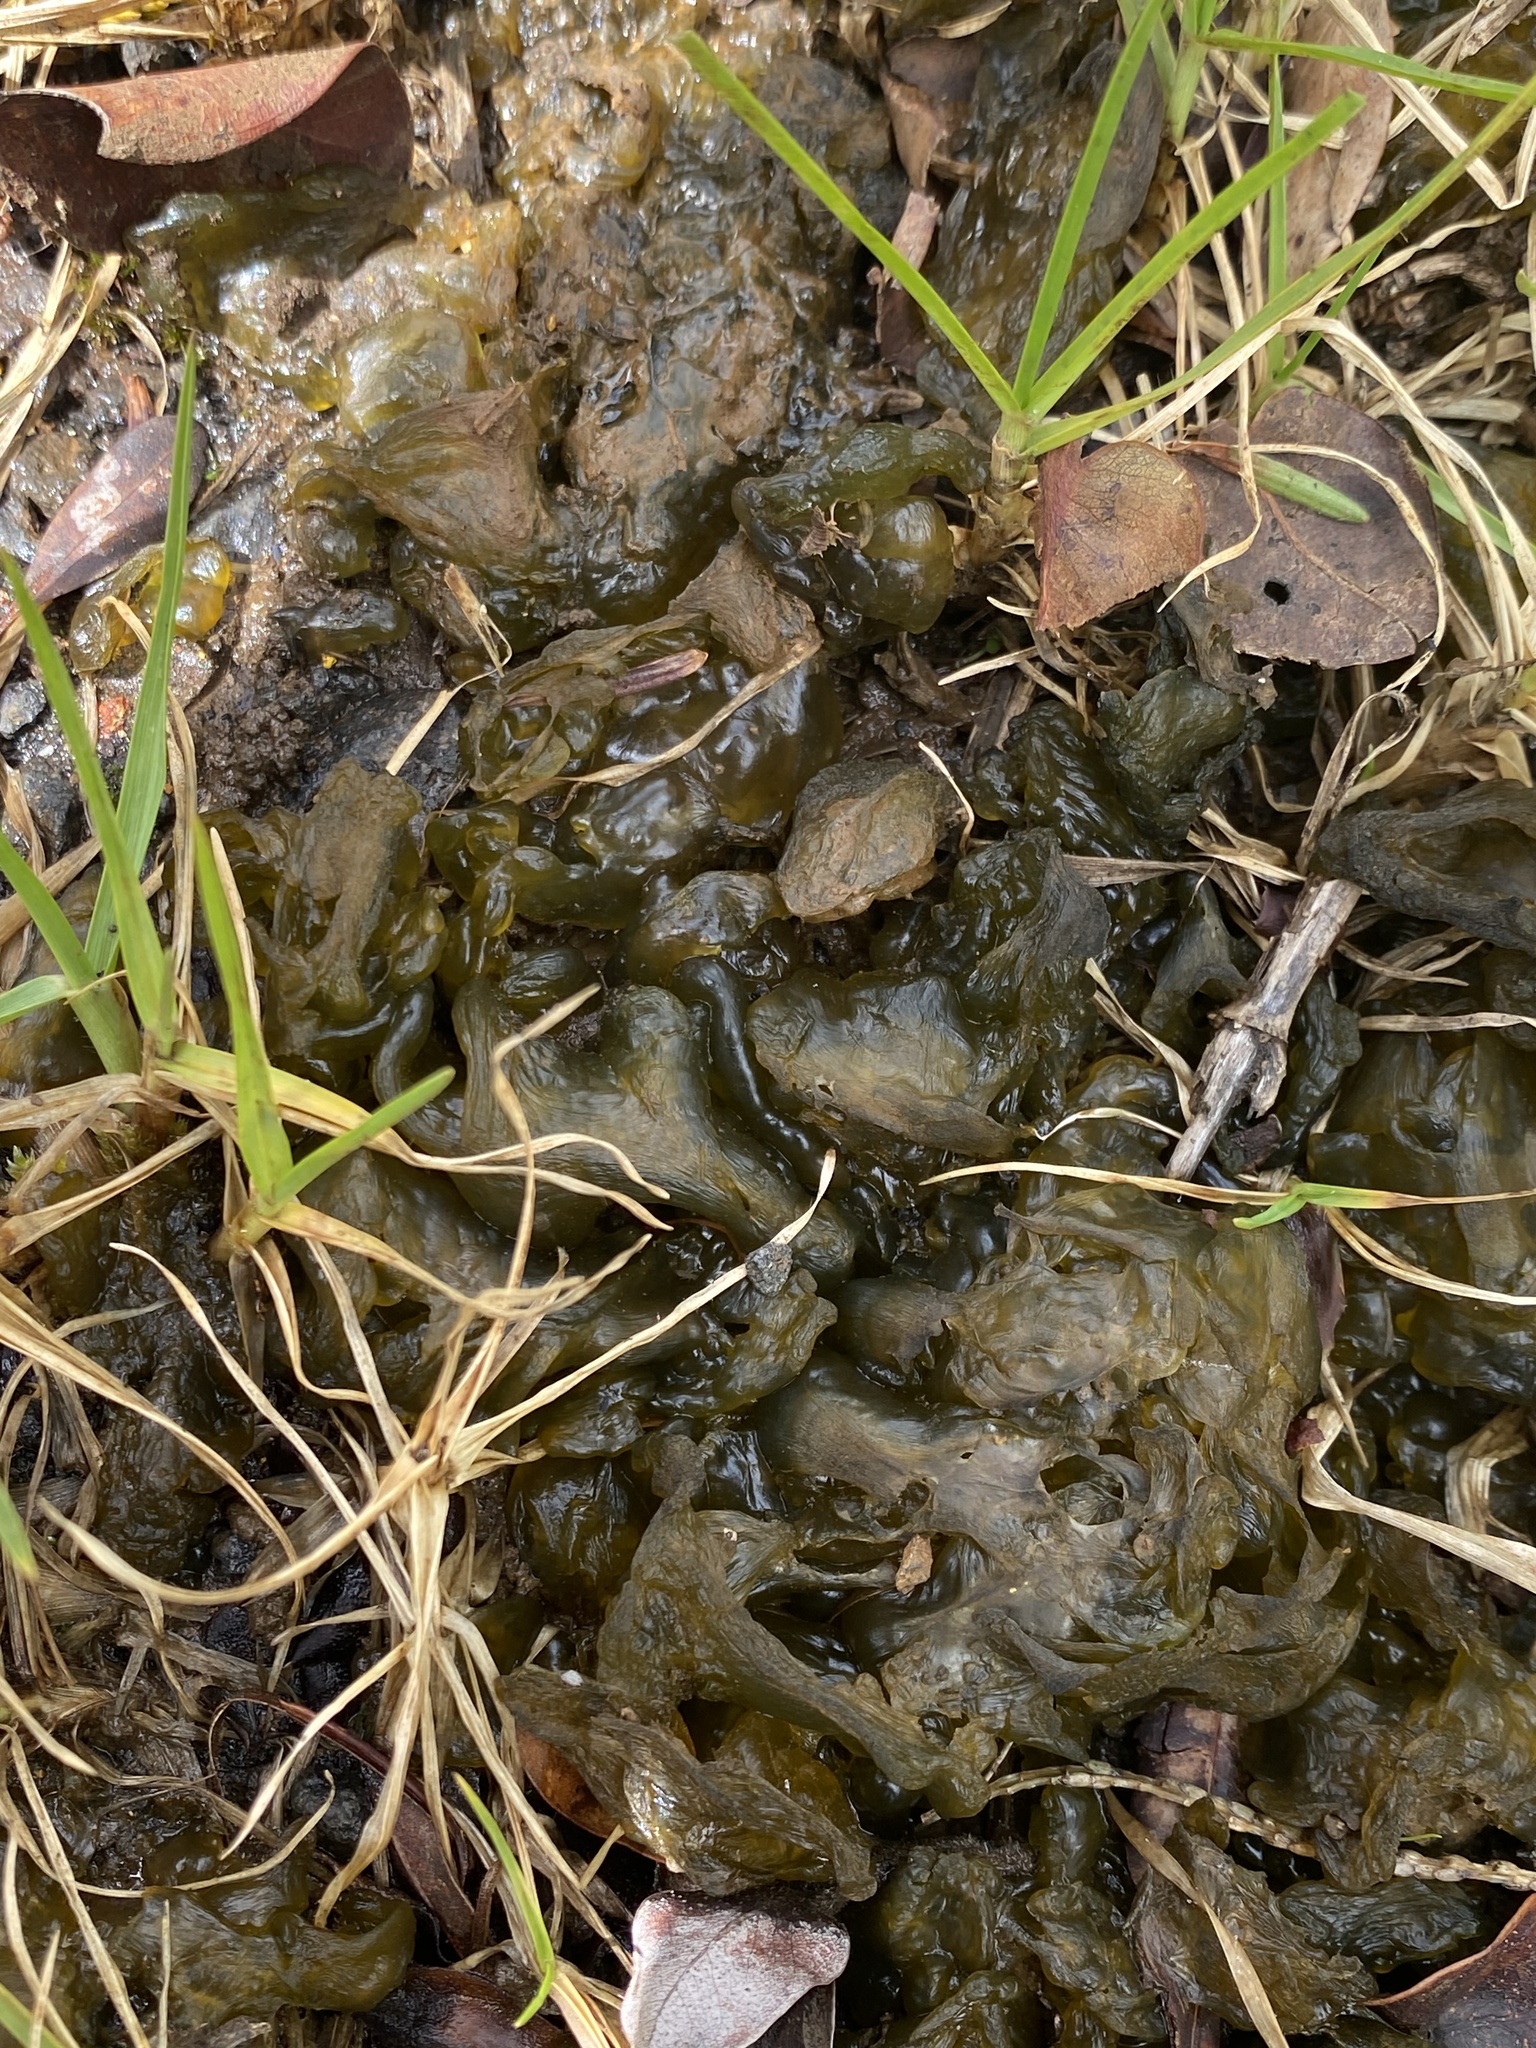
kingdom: Bacteria
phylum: Cyanobacteria
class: Cyanobacteriia
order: Cyanobacteriales
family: Nostocaceae
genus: Nostoc
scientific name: Nostoc commune
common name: Star jelly
